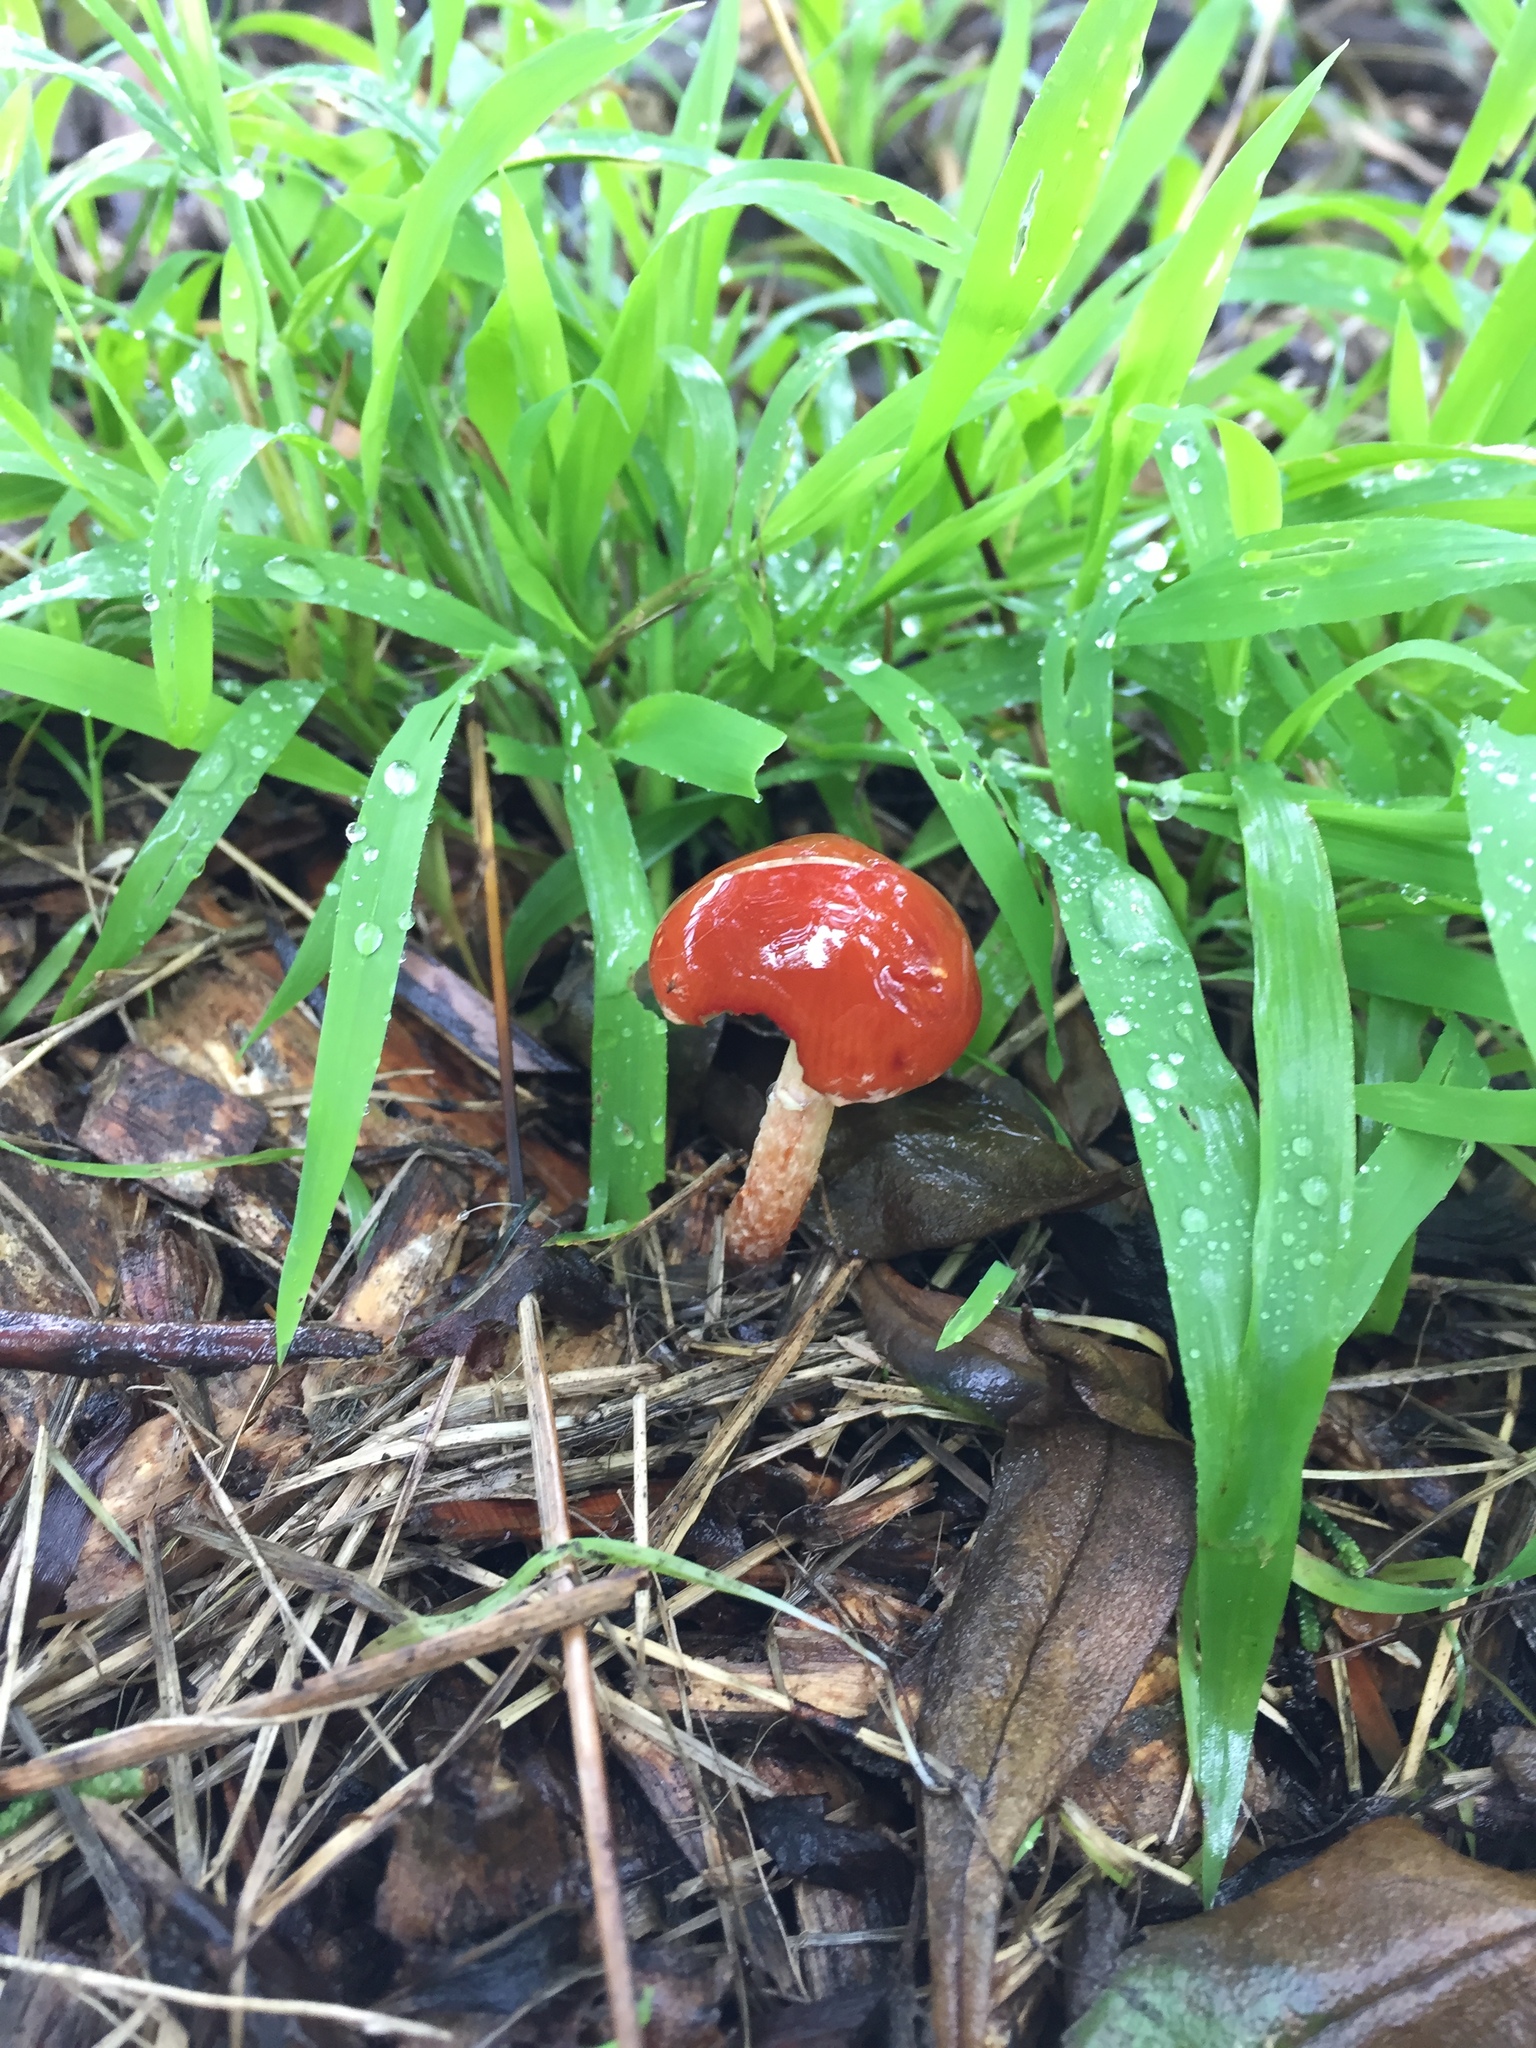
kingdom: Fungi
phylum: Basidiomycota
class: Agaricomycetes
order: Agaricales
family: Strophariaceae
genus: Leratiomyces
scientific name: Leratiomyces ceres
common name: Redlead roundhead
